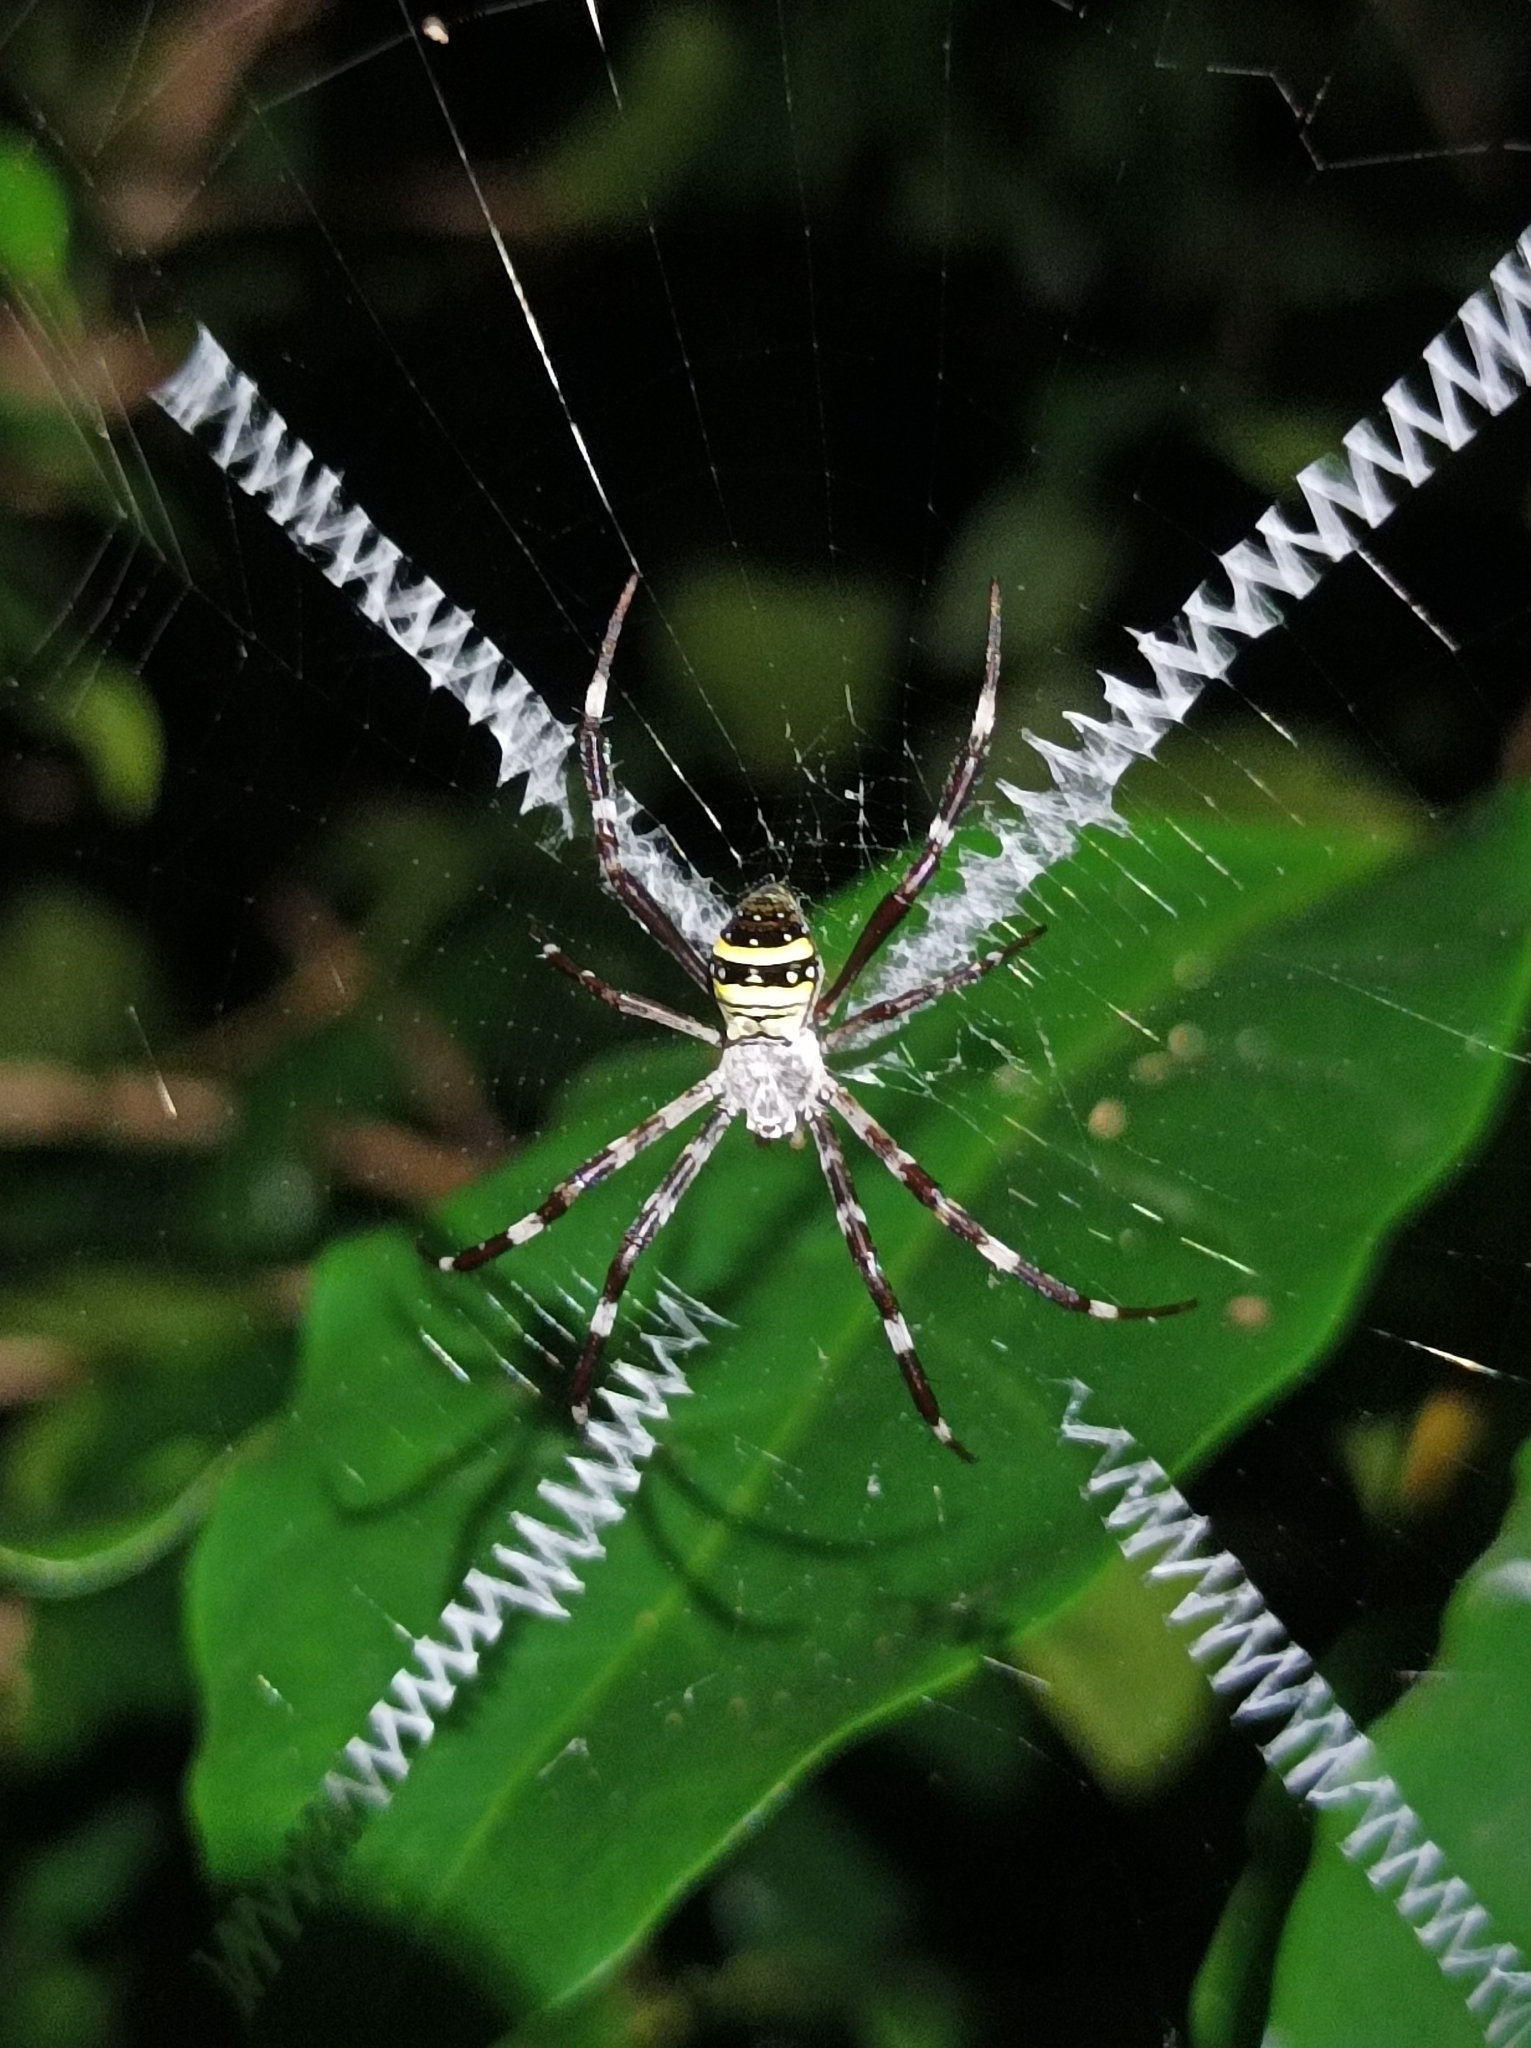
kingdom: Animalia
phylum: Arthropoda
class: Arachnida
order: Araneae
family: Araneidae
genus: Argiope
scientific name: Argiope caledonia
